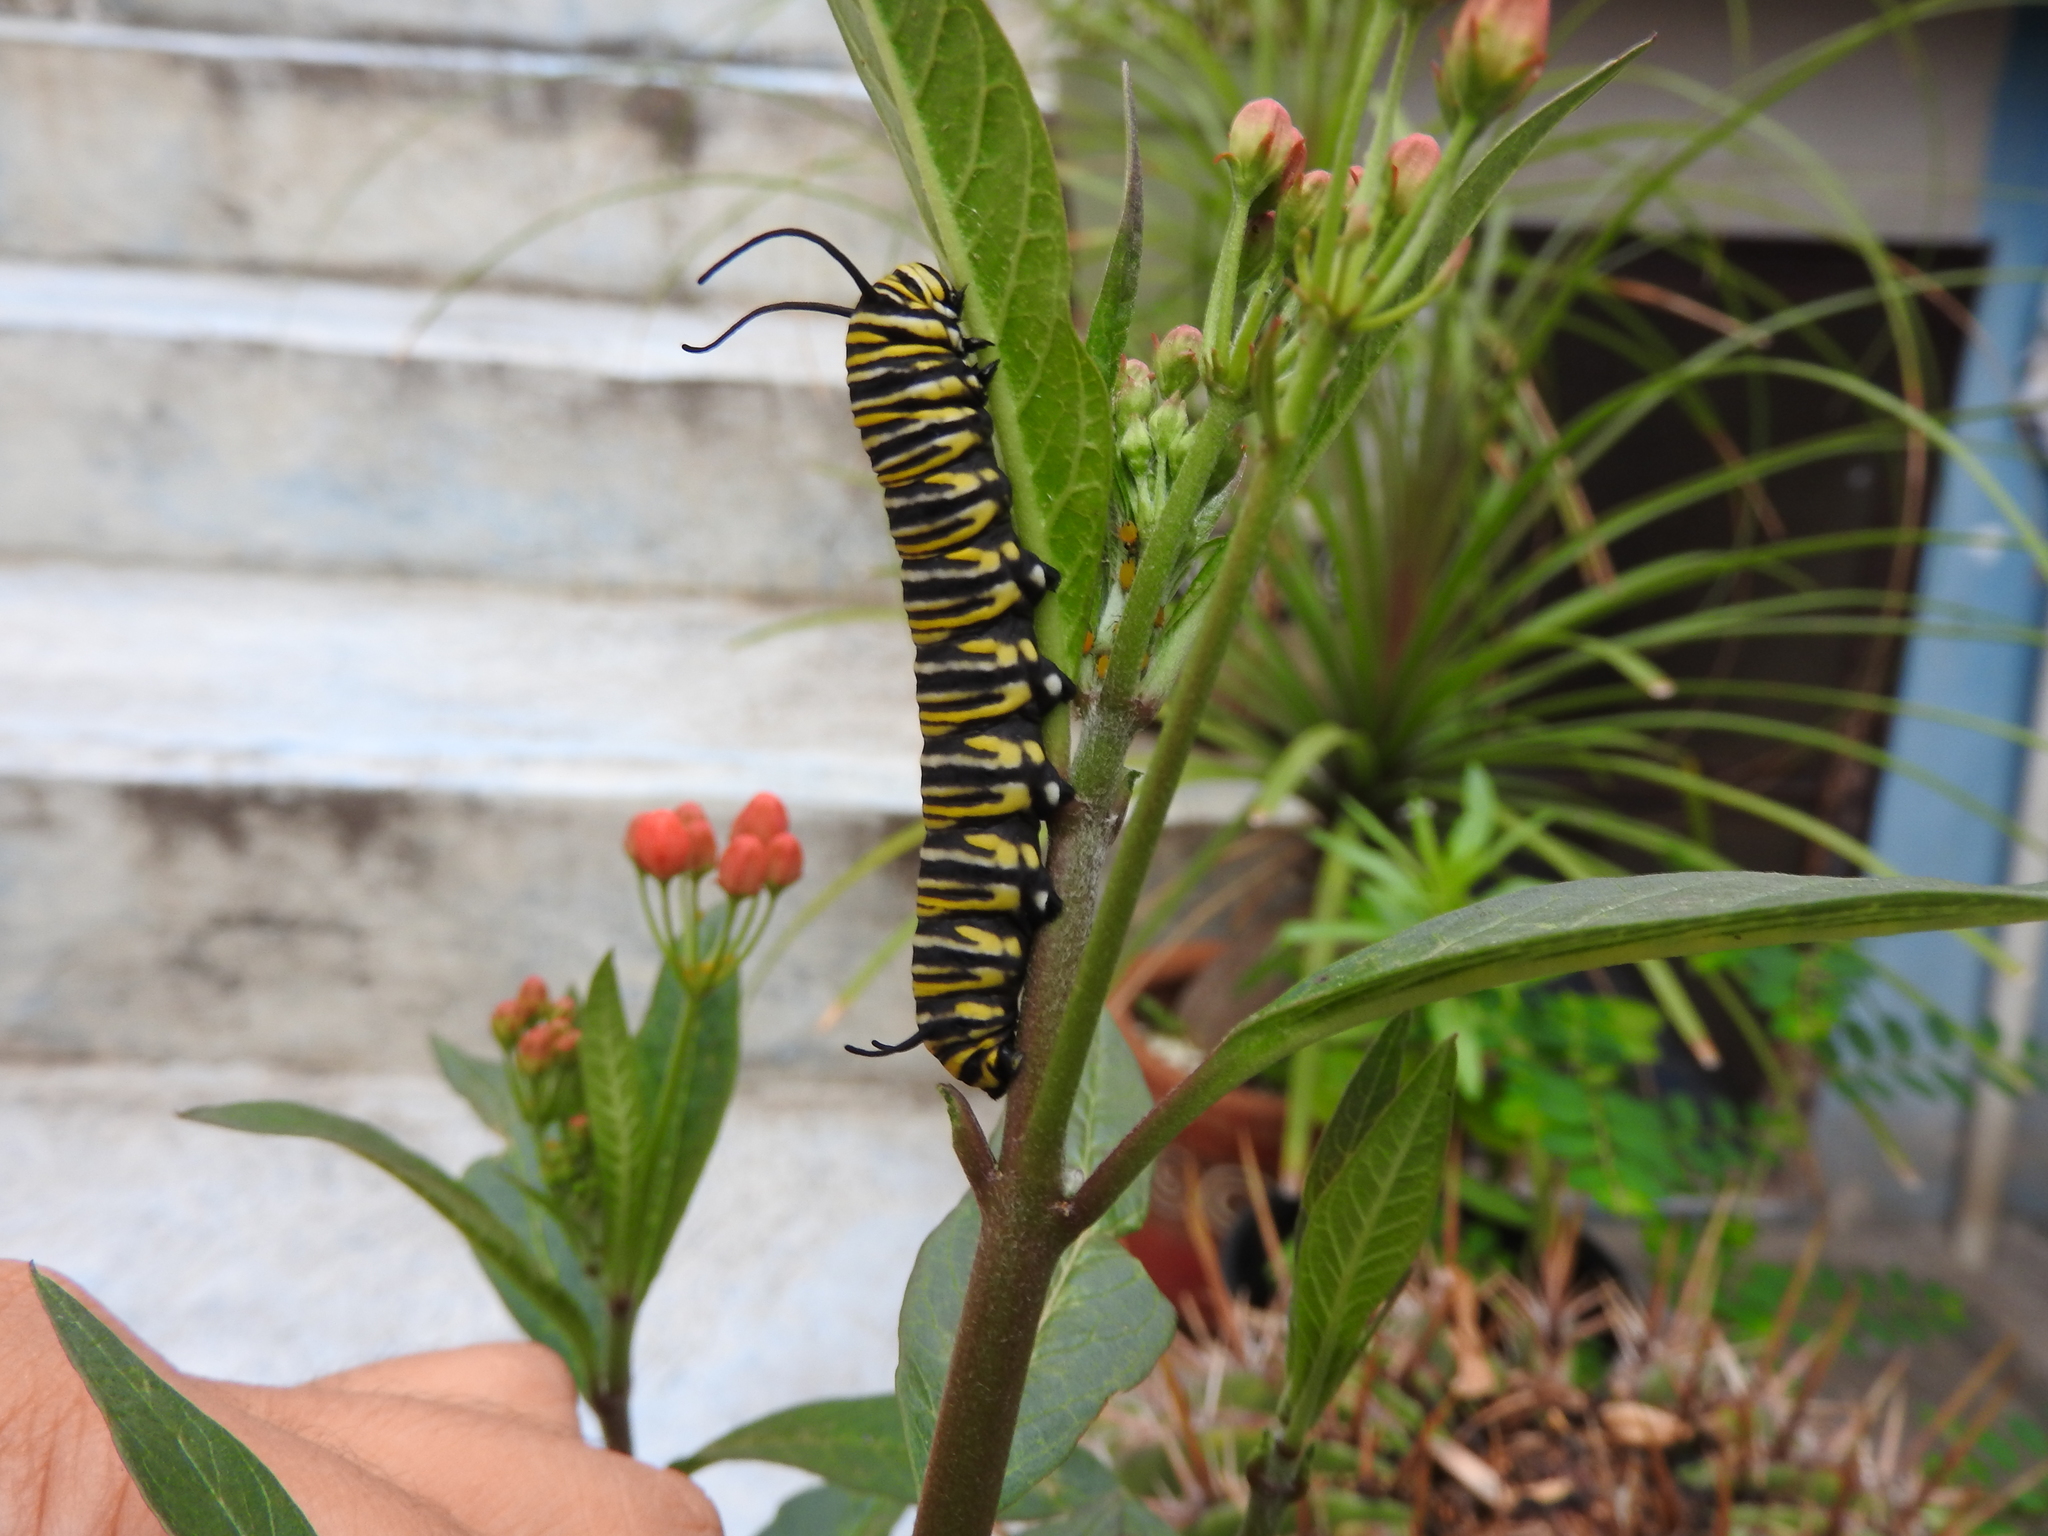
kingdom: Animalia
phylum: Arthropoda
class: Insecta
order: Lepidoptera
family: Nymphalidae
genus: Danaus
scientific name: Danaus plexippus
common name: Monarch
